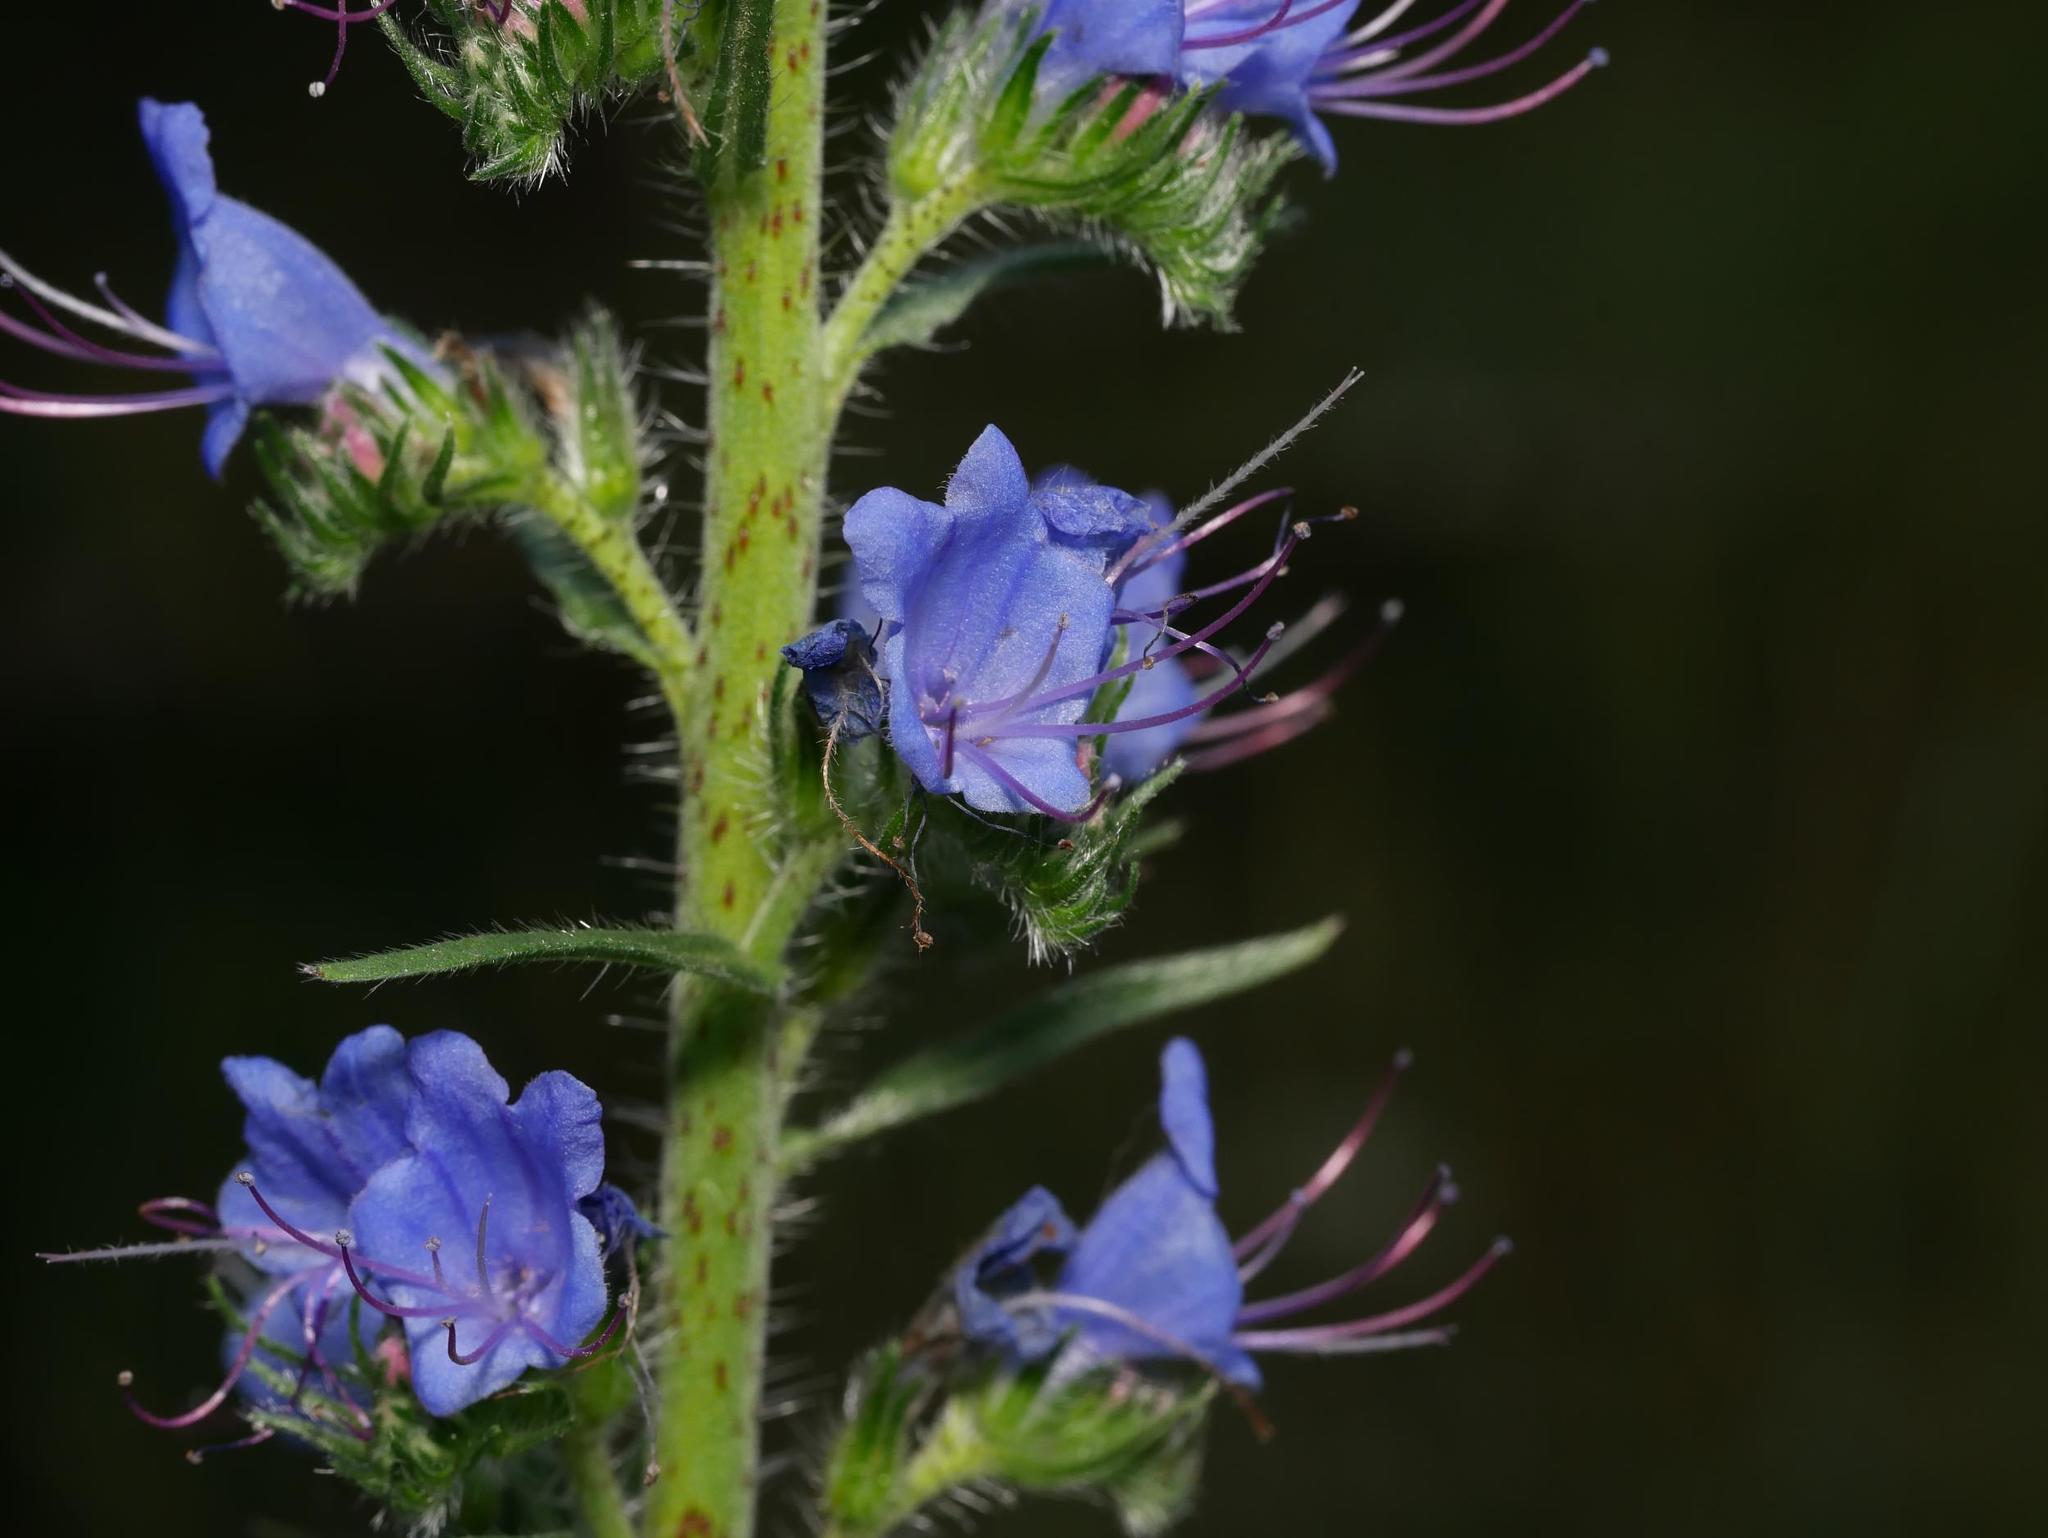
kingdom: Plantae
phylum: Tracheophyta
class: Magnoliopsida
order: Boraginales
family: Boraginaceae
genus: Echium
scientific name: Echium vulgare
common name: Common viper's bugloss
